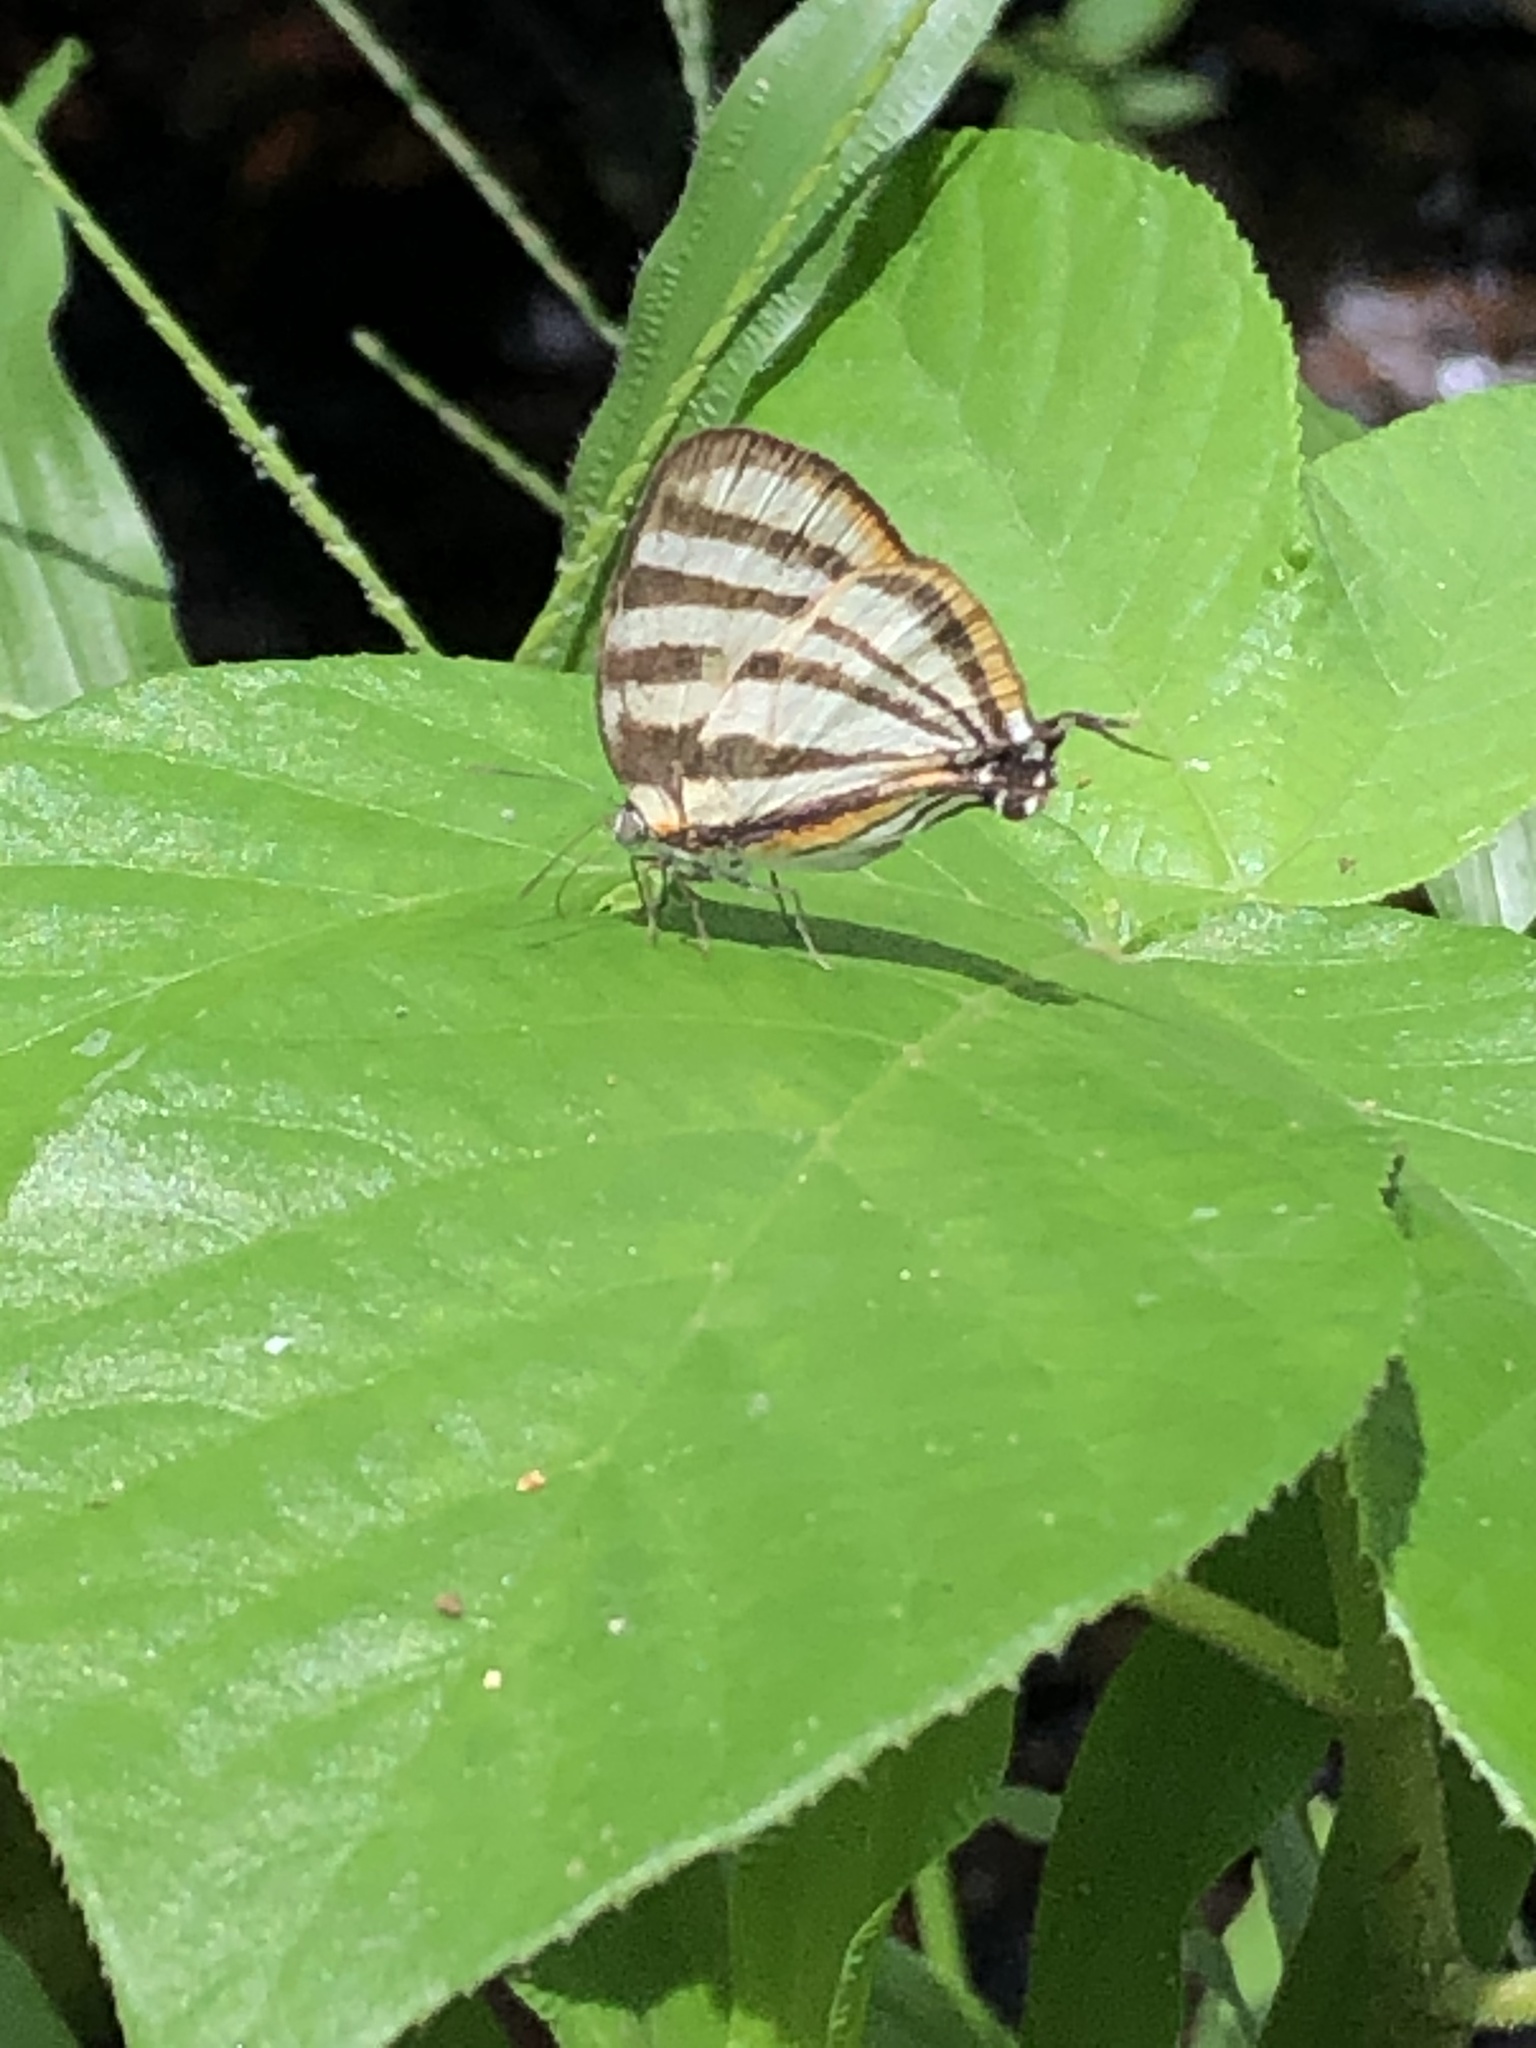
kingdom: Animalia
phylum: Arthropoda
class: Insecta
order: Lepidoptera
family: Lycaenidae
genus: Arawacus
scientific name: Arawacus separata
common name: Separated stripestreak
